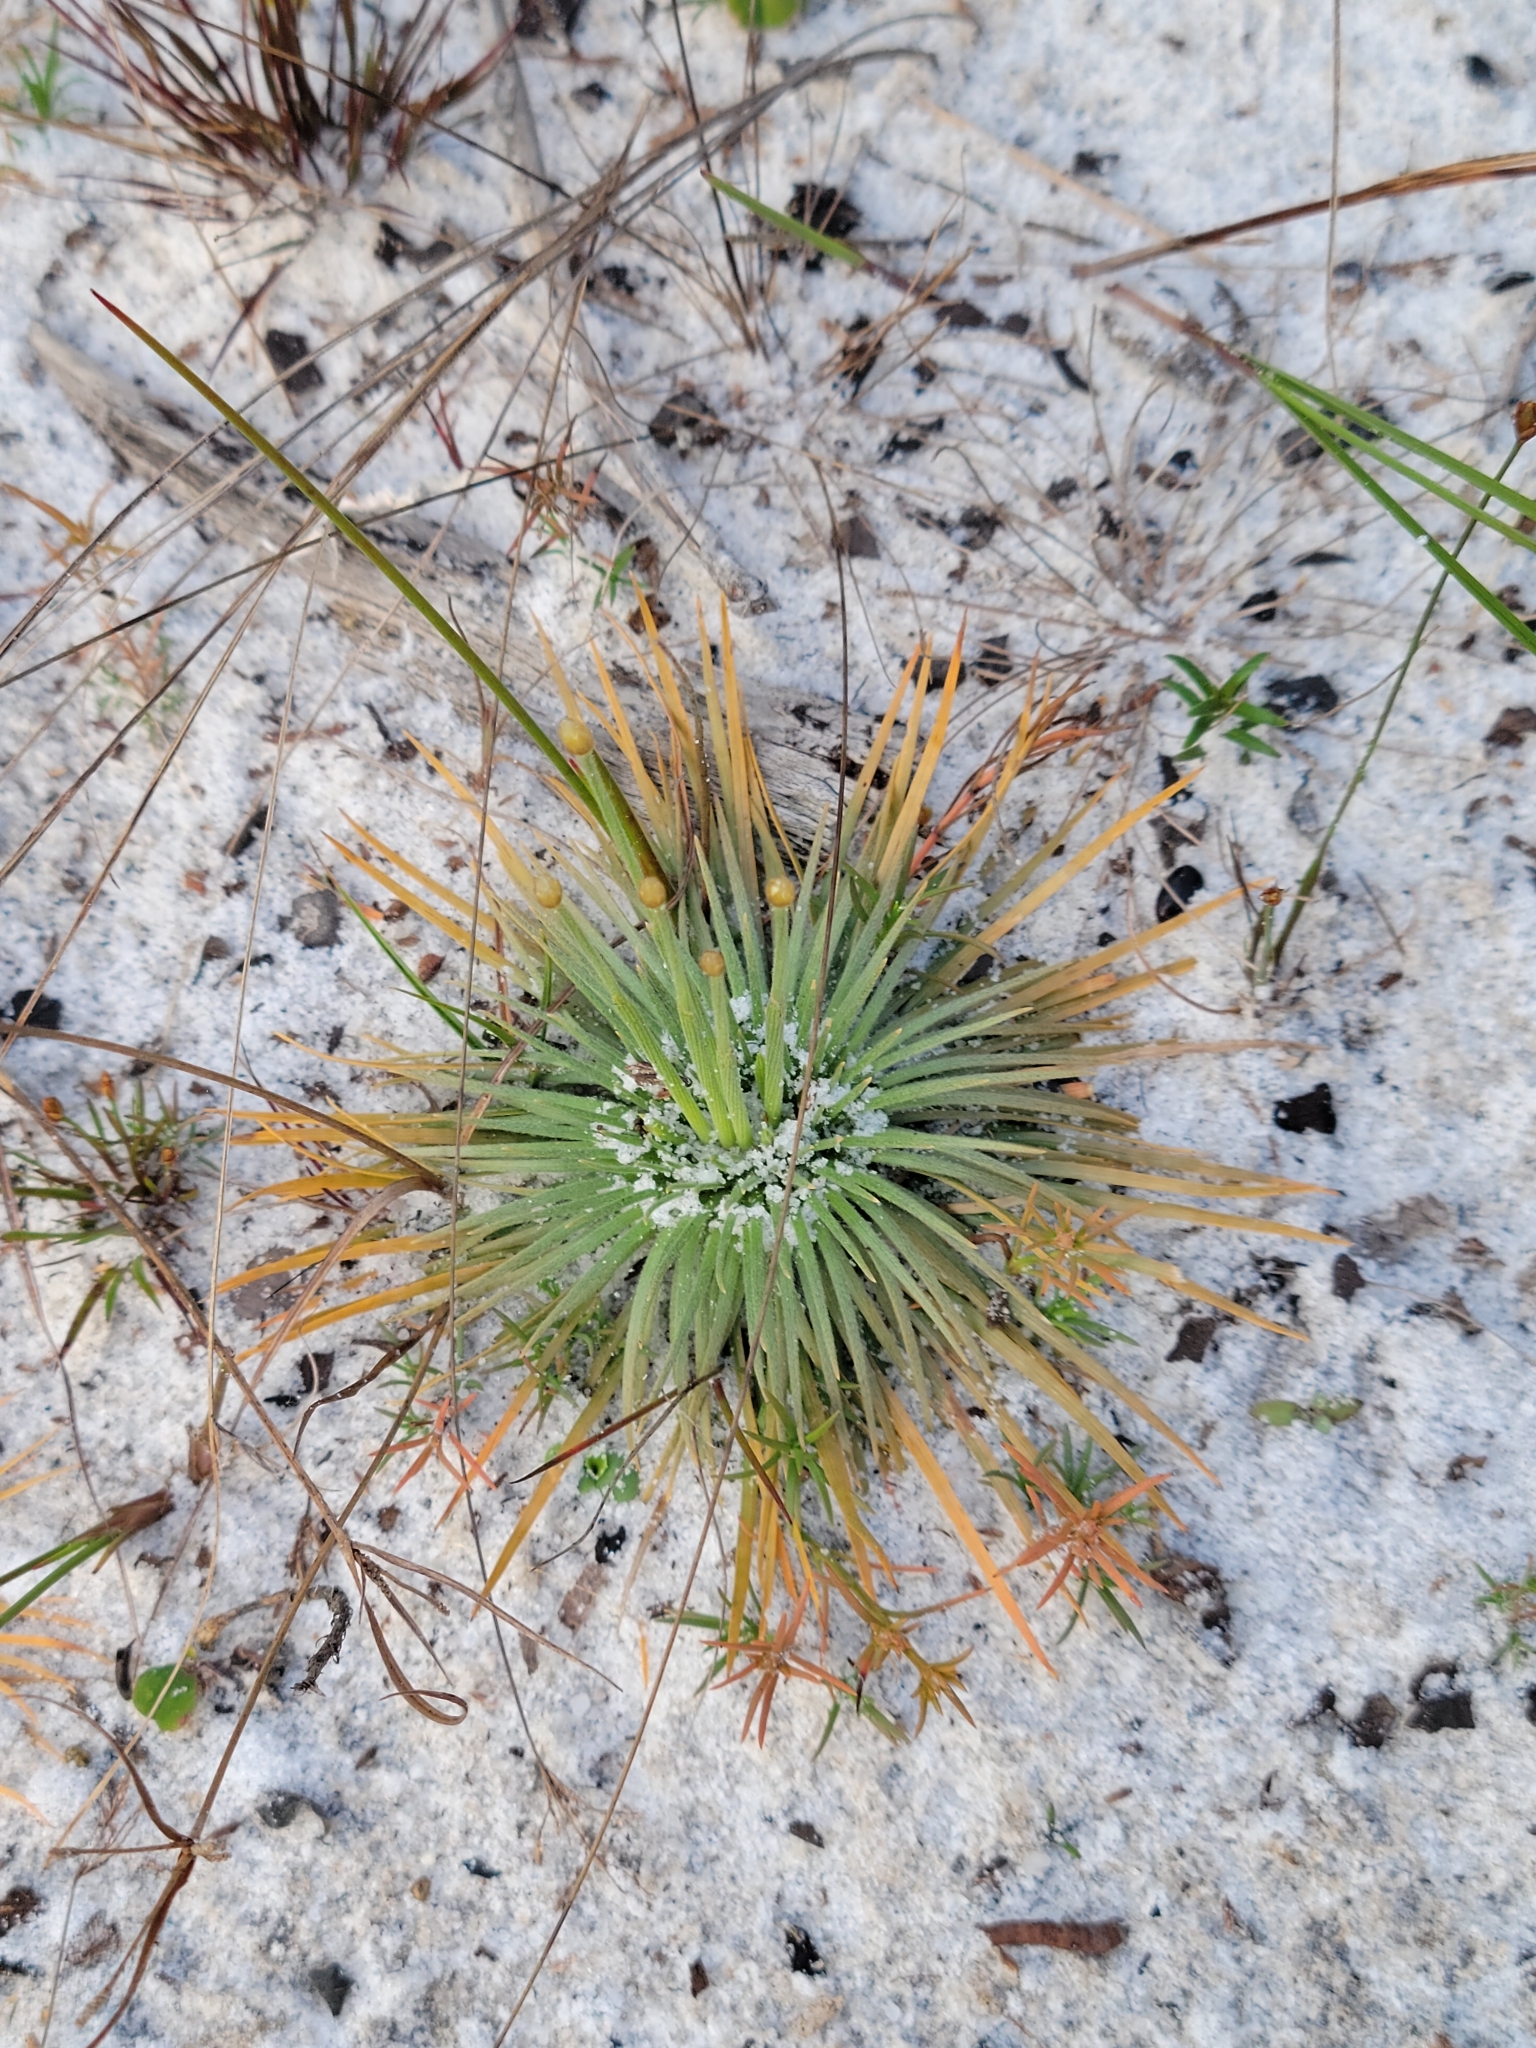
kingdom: Plantae
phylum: Tracheophyta
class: Liliopsida
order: Poales
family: Eriocaulaceae
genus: Syngonanthus
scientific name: Syngonanthus flavidulus
